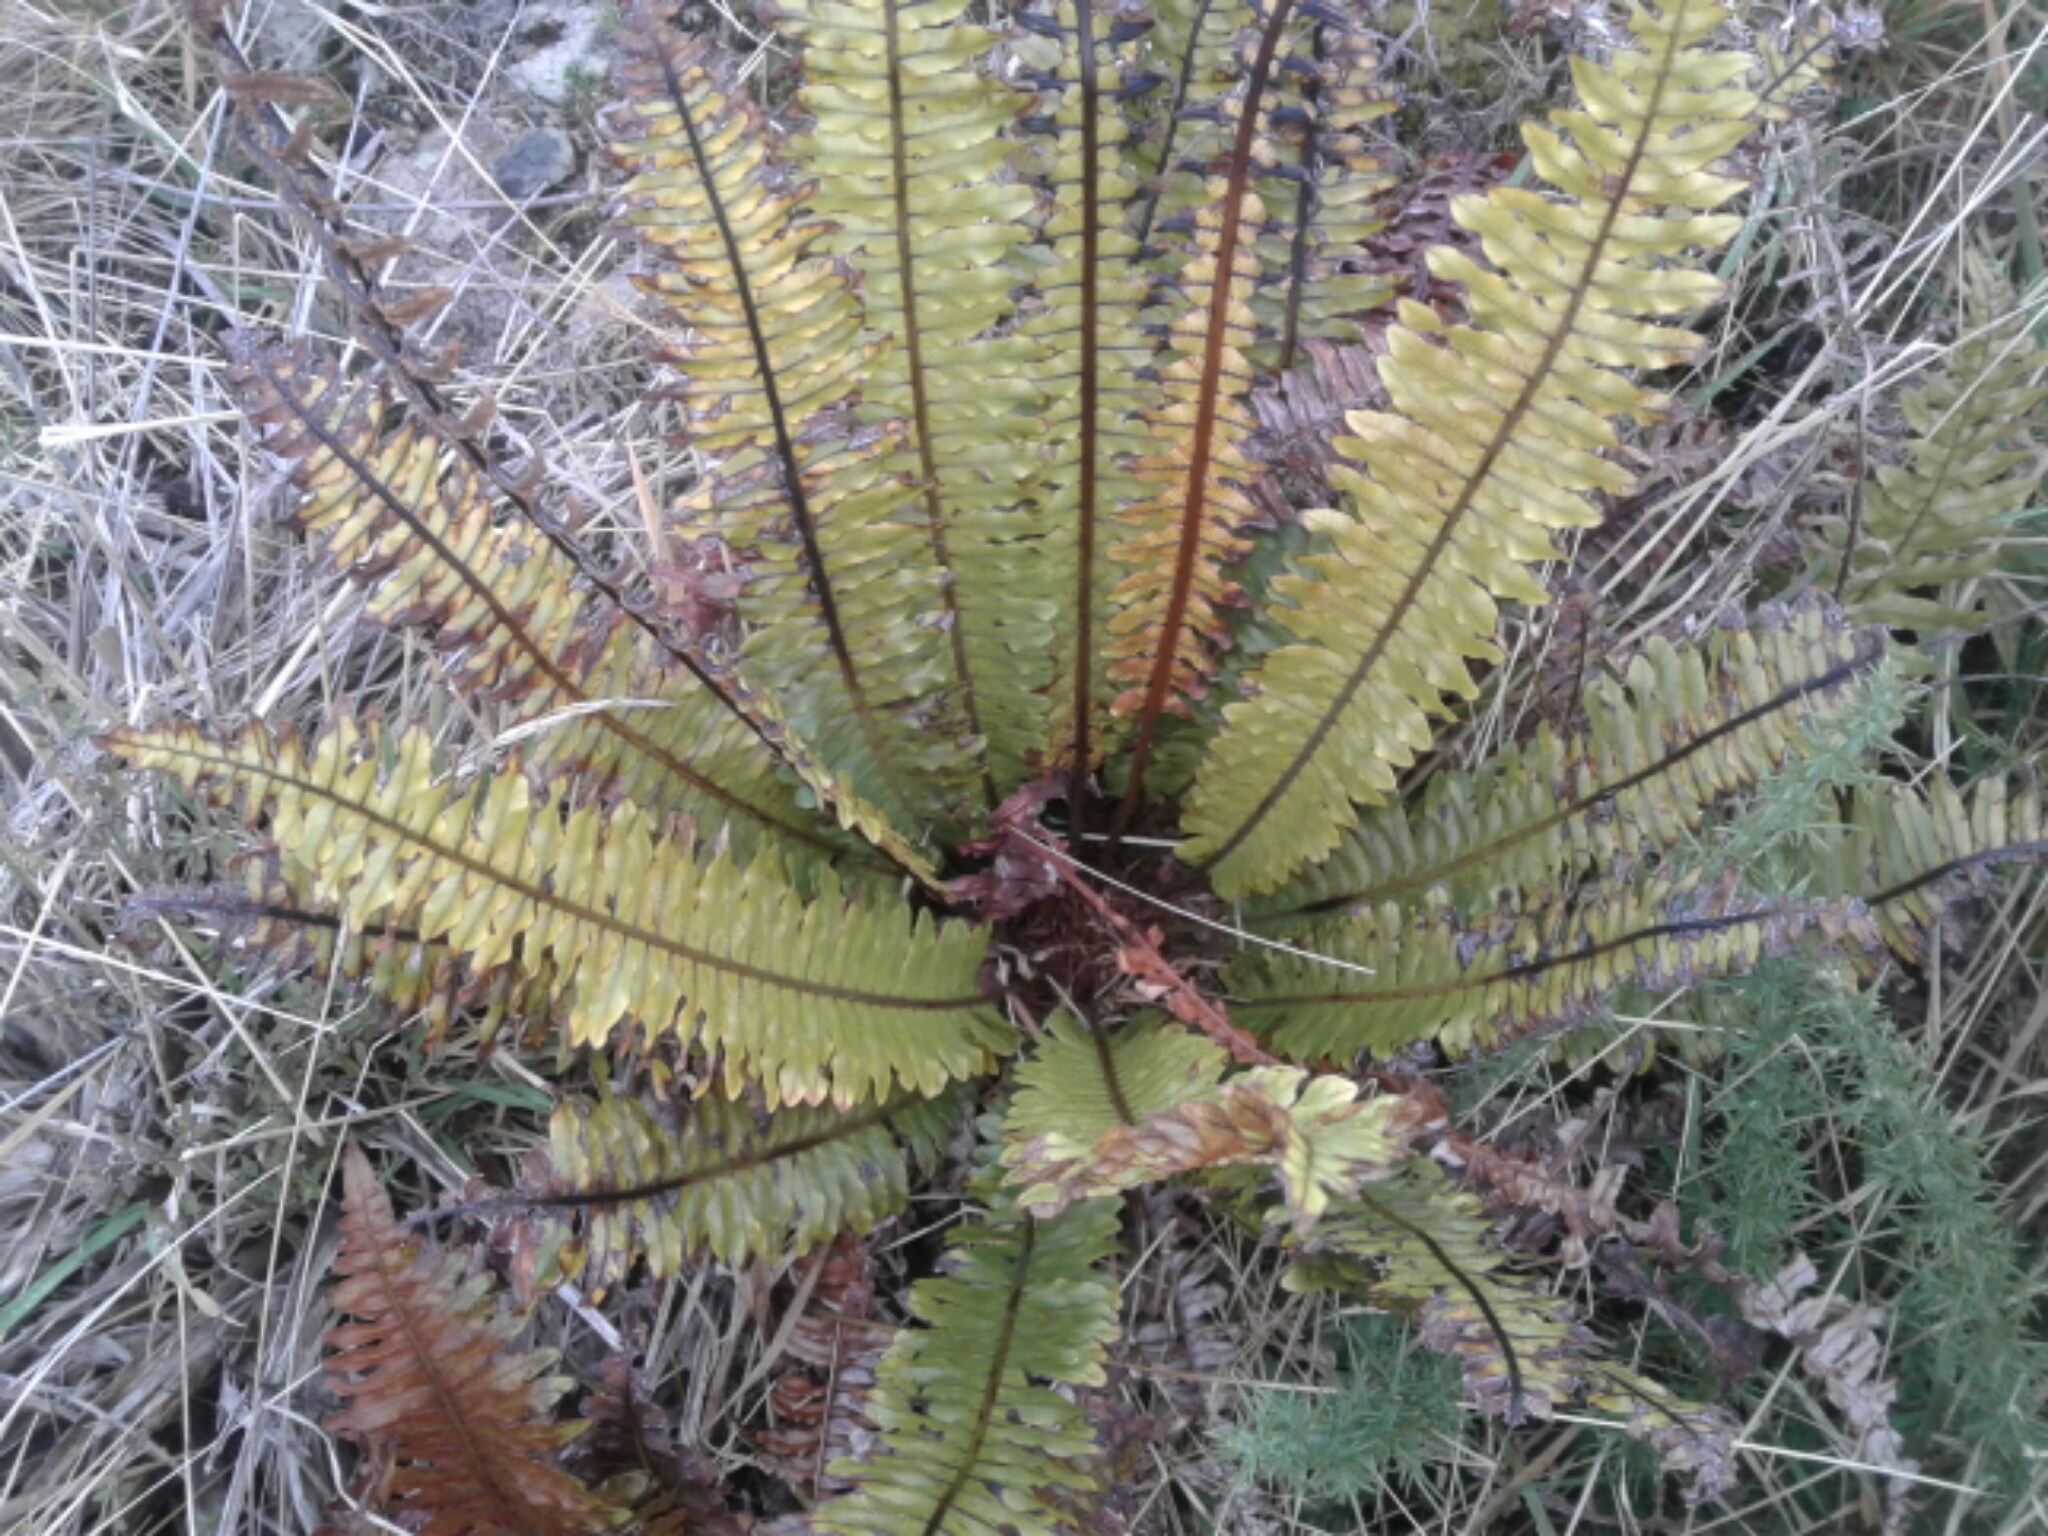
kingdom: Plantae
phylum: Tracheophyta
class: Polypodiopsida
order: Polypodiales
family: Blechnaceae
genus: Lomaria
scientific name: Lomaria discolor
